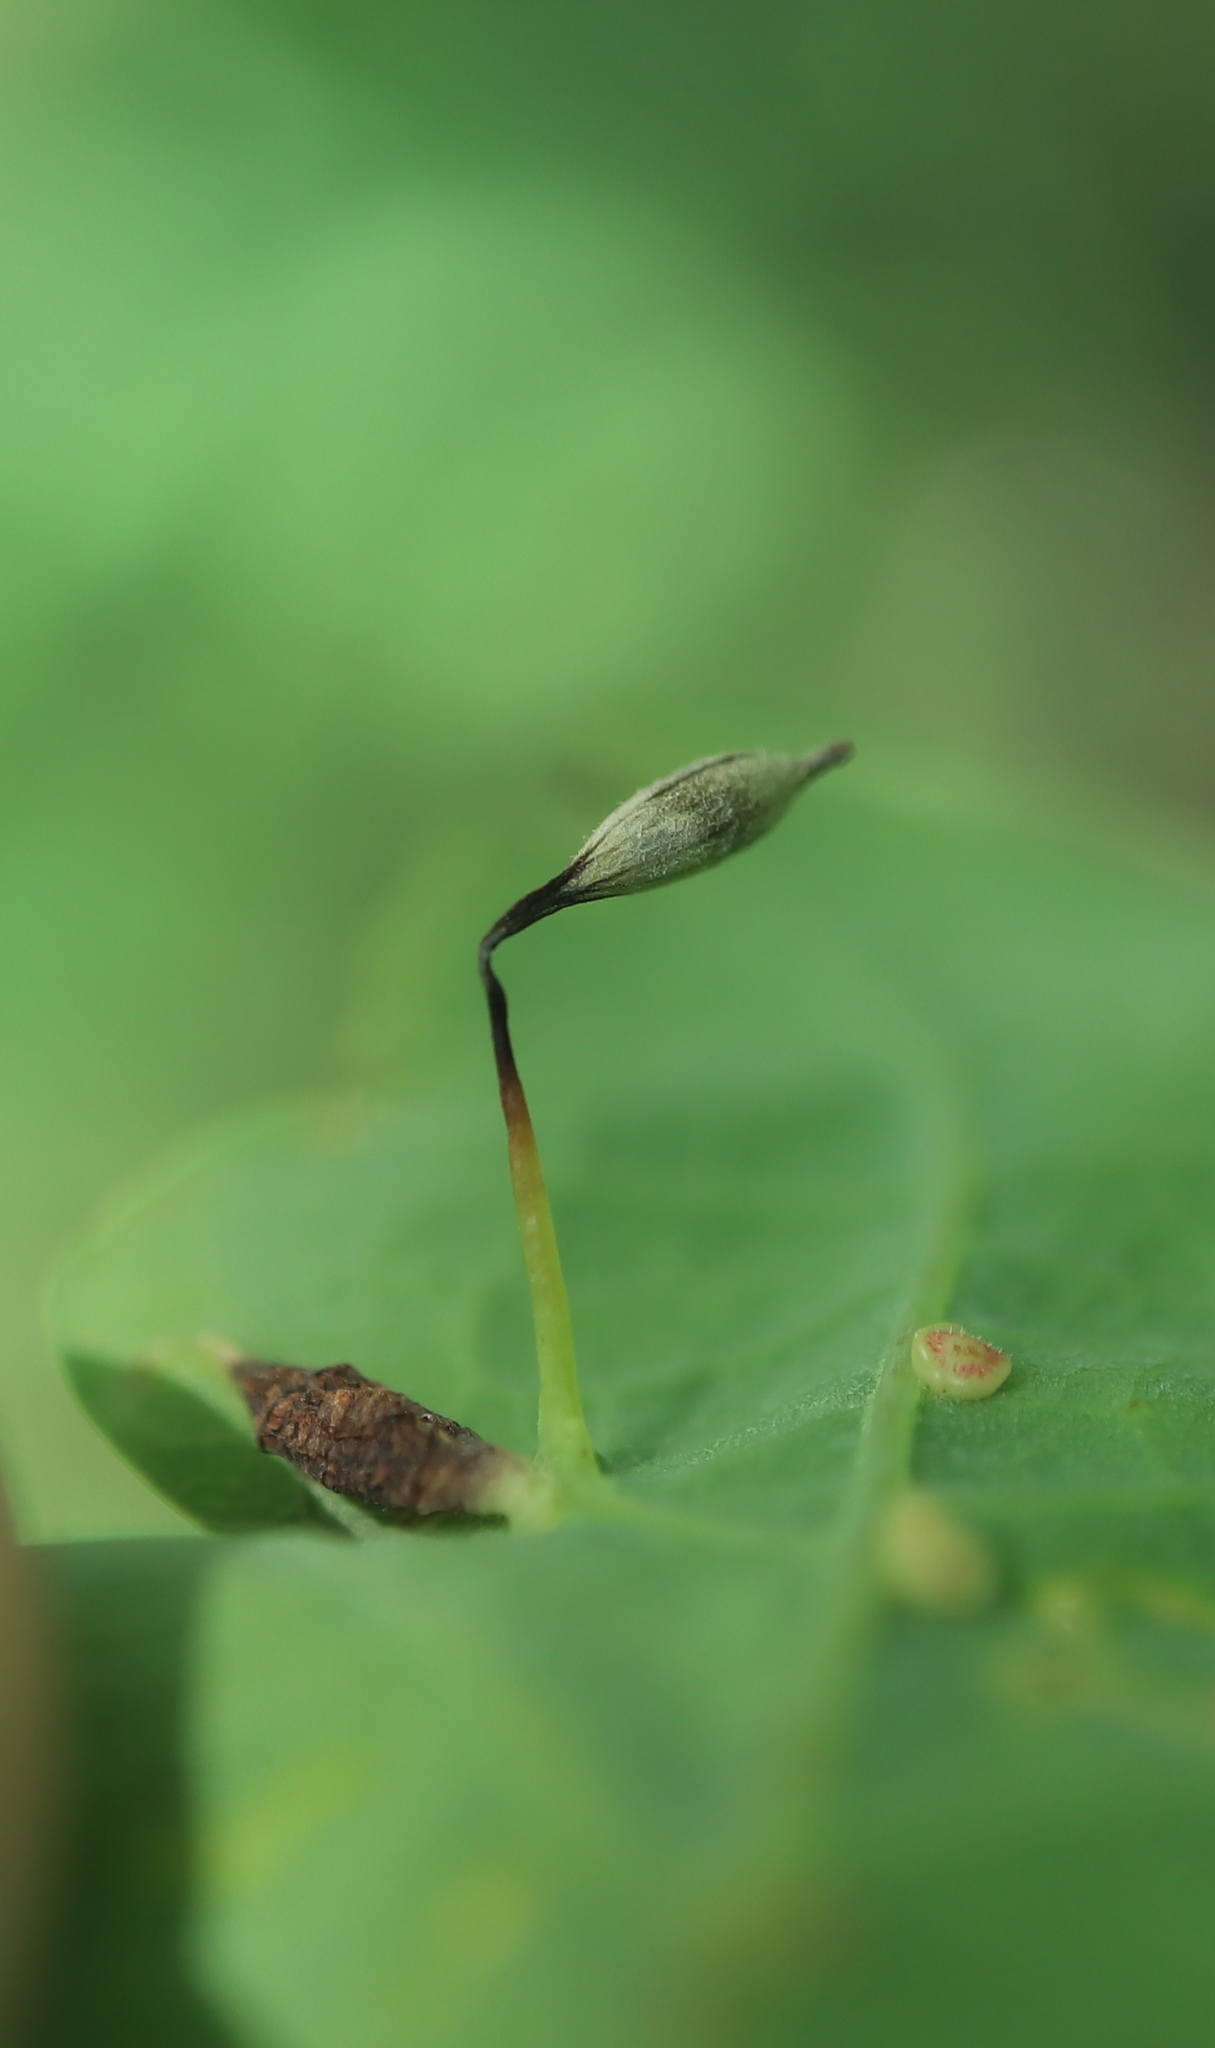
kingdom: Animalia
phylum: Arthropoda
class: Insecta
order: Hymenoptera
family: Cynipidae
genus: Andricus
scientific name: Andricus
